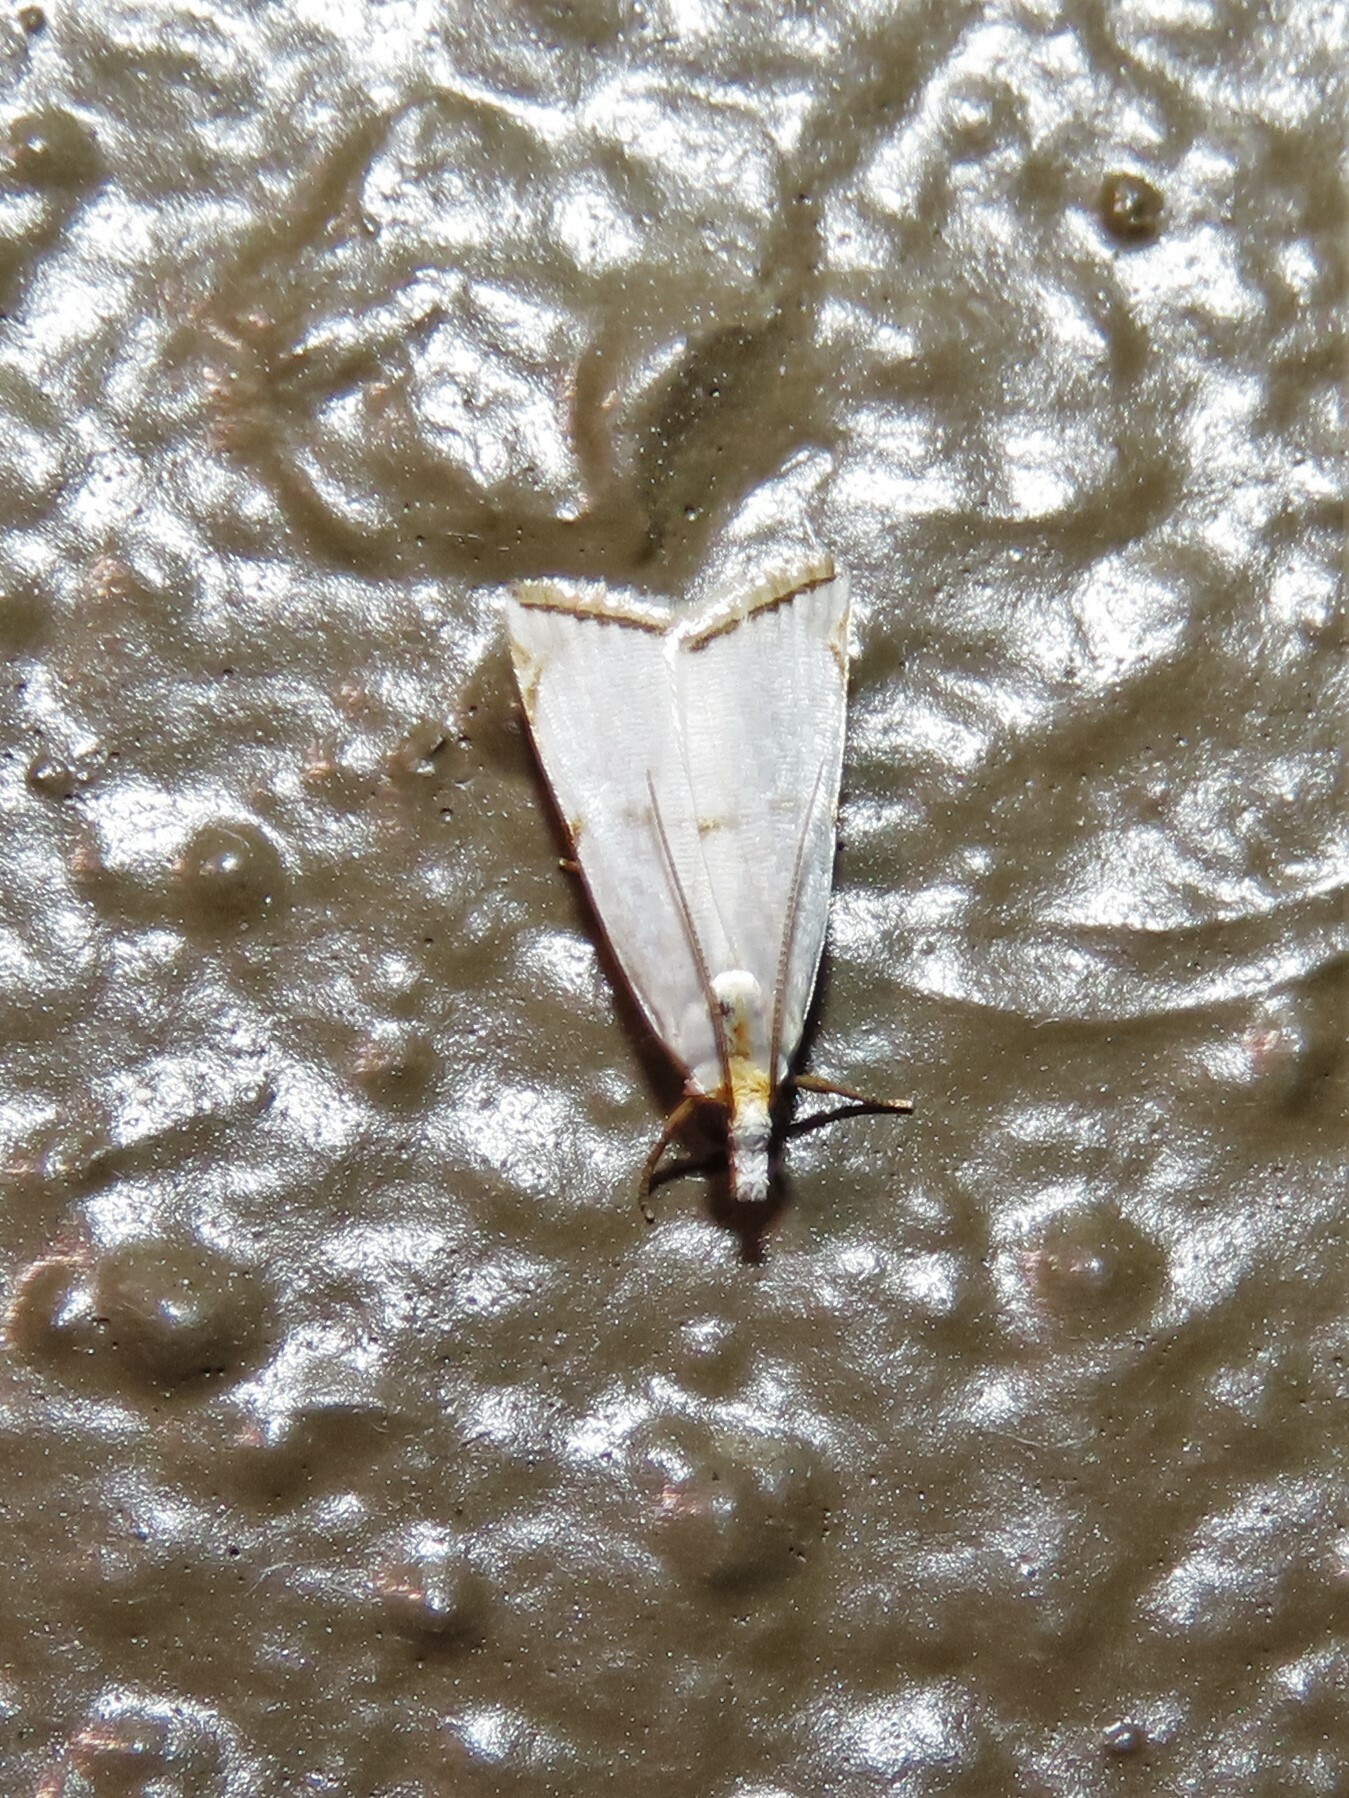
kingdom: Animalia
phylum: Arthropoda
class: Insecta
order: Lepidoptera
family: Crambidae
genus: Argyria
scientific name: Argyria pusillalis
